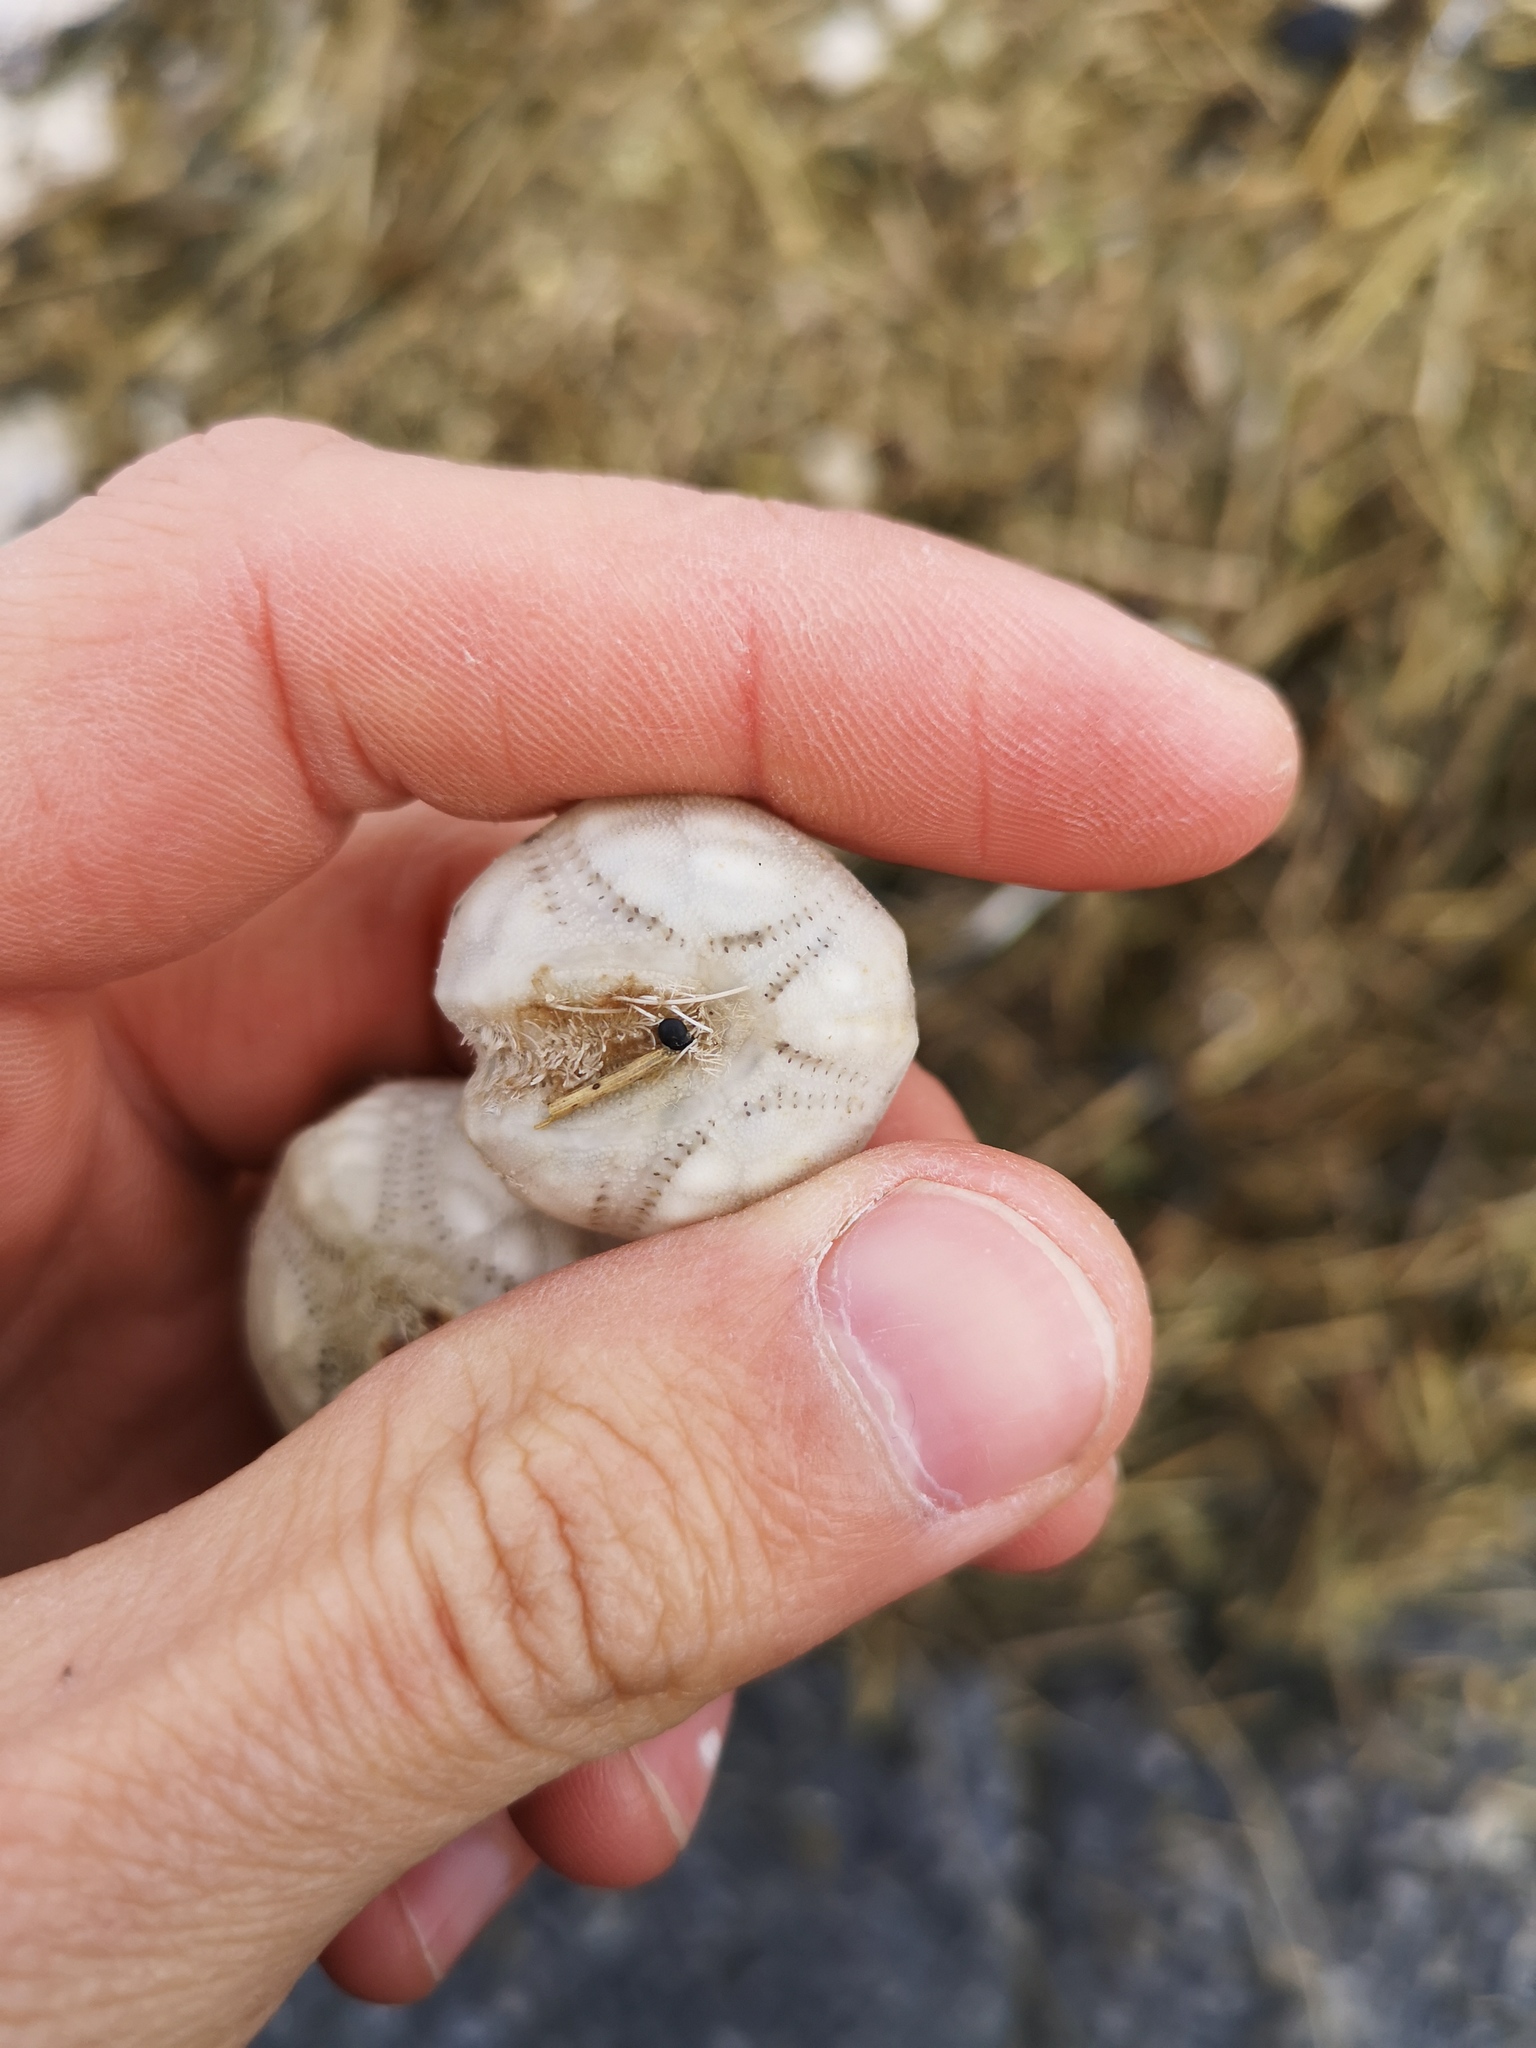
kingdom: Animalia
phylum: Echinodermata
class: Echinoidea
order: Spatangoida
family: Loveniidae
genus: Echinocardium
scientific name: Echinocardium cordatum
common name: Heart-urchin
